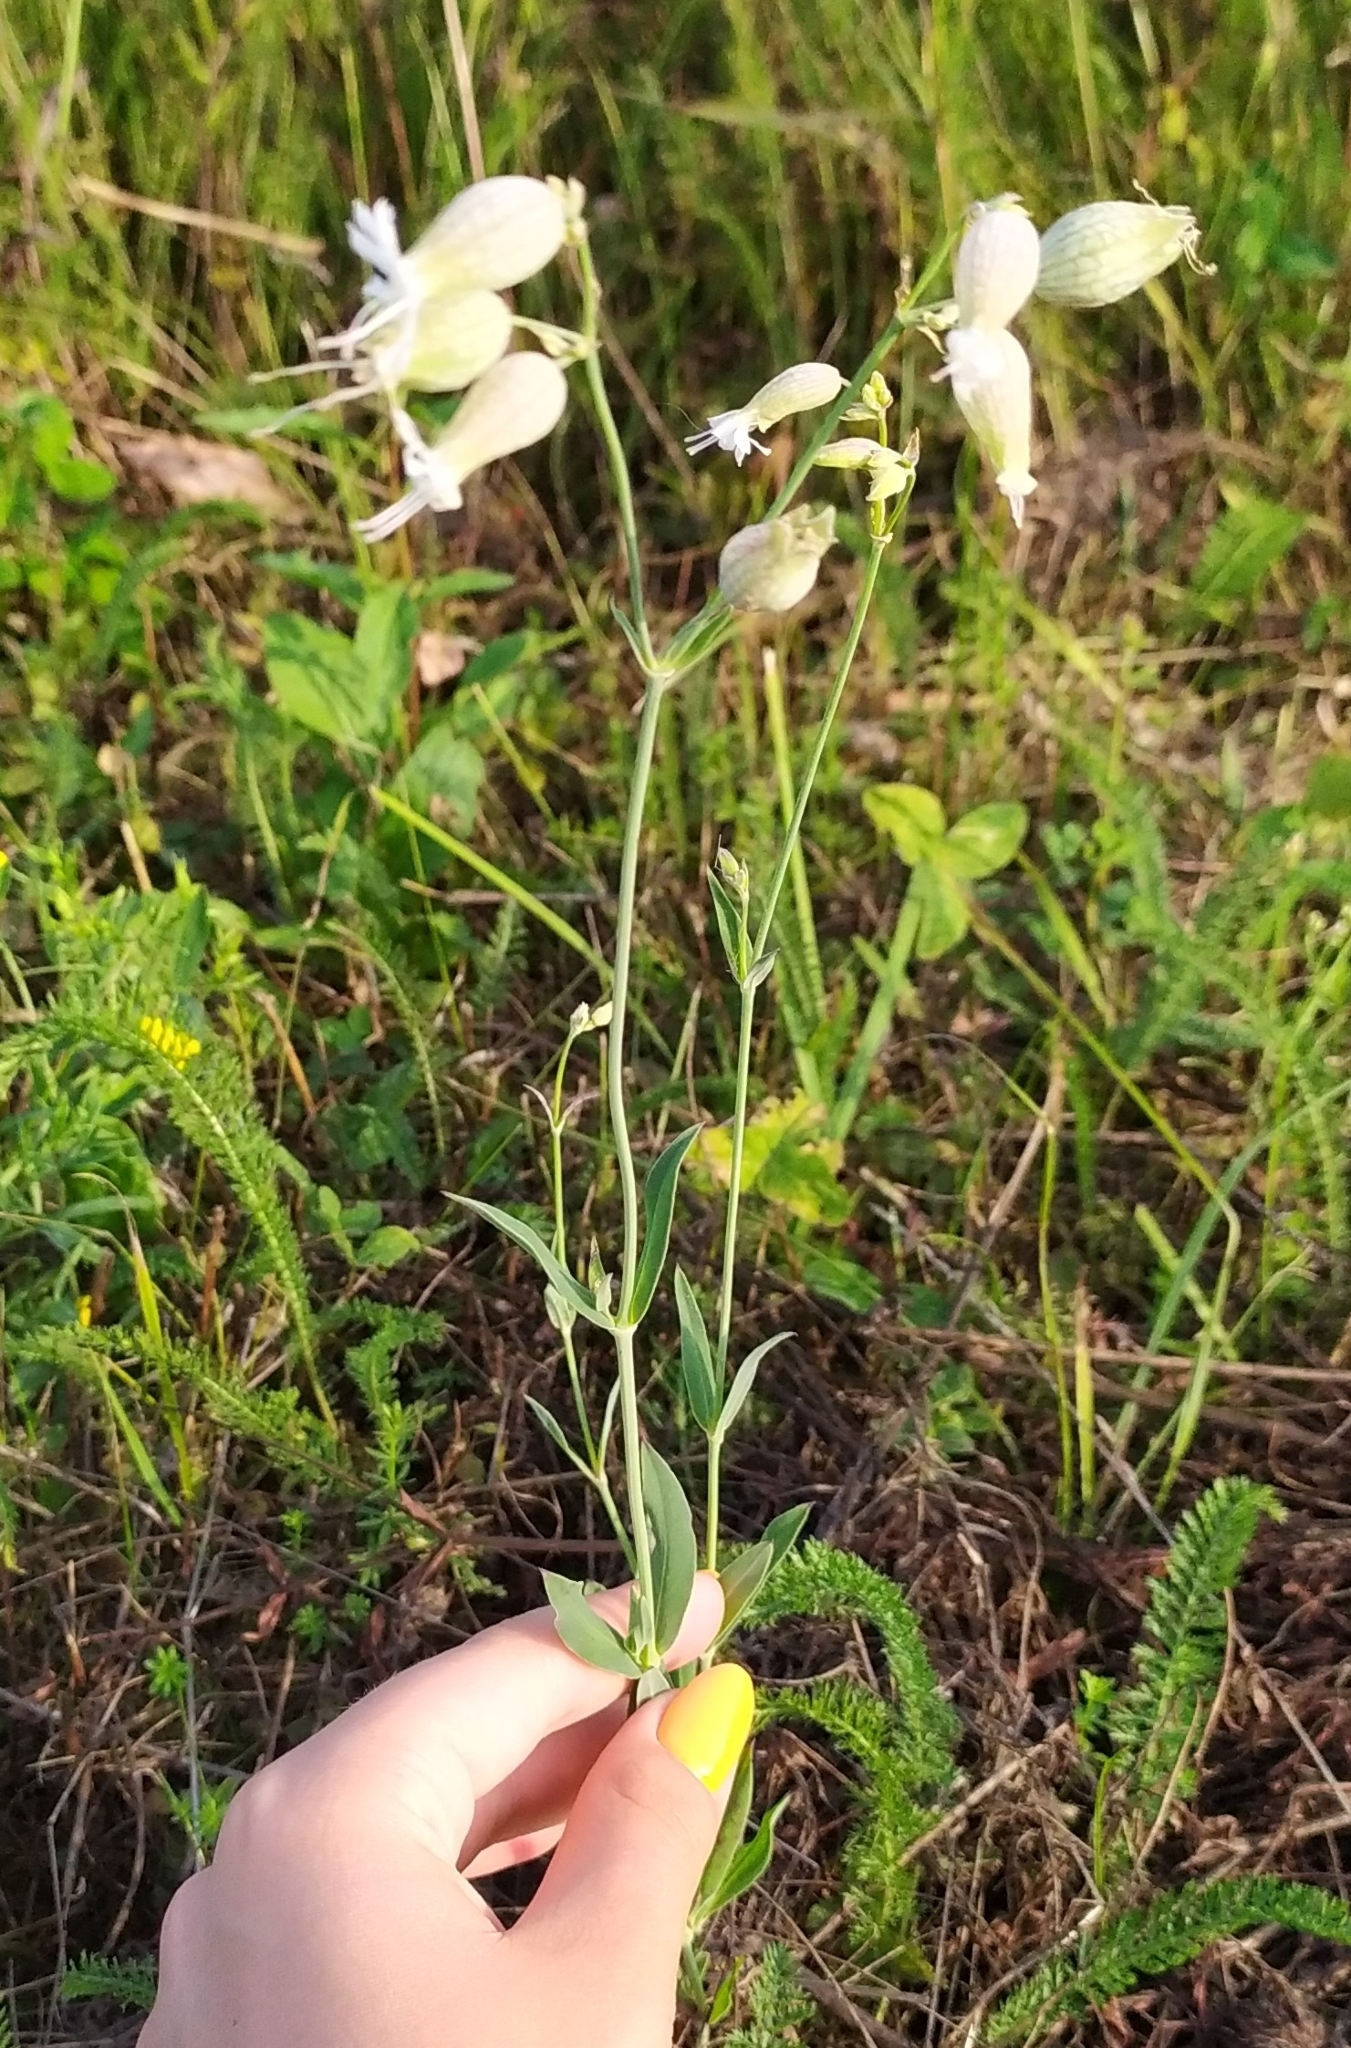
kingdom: Plantae
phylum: Tracheophyta
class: Magnoliopsida
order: Caryophyllales
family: Caryophyllaceae
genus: Silene
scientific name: Silene vulgaris
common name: Bladder campion
